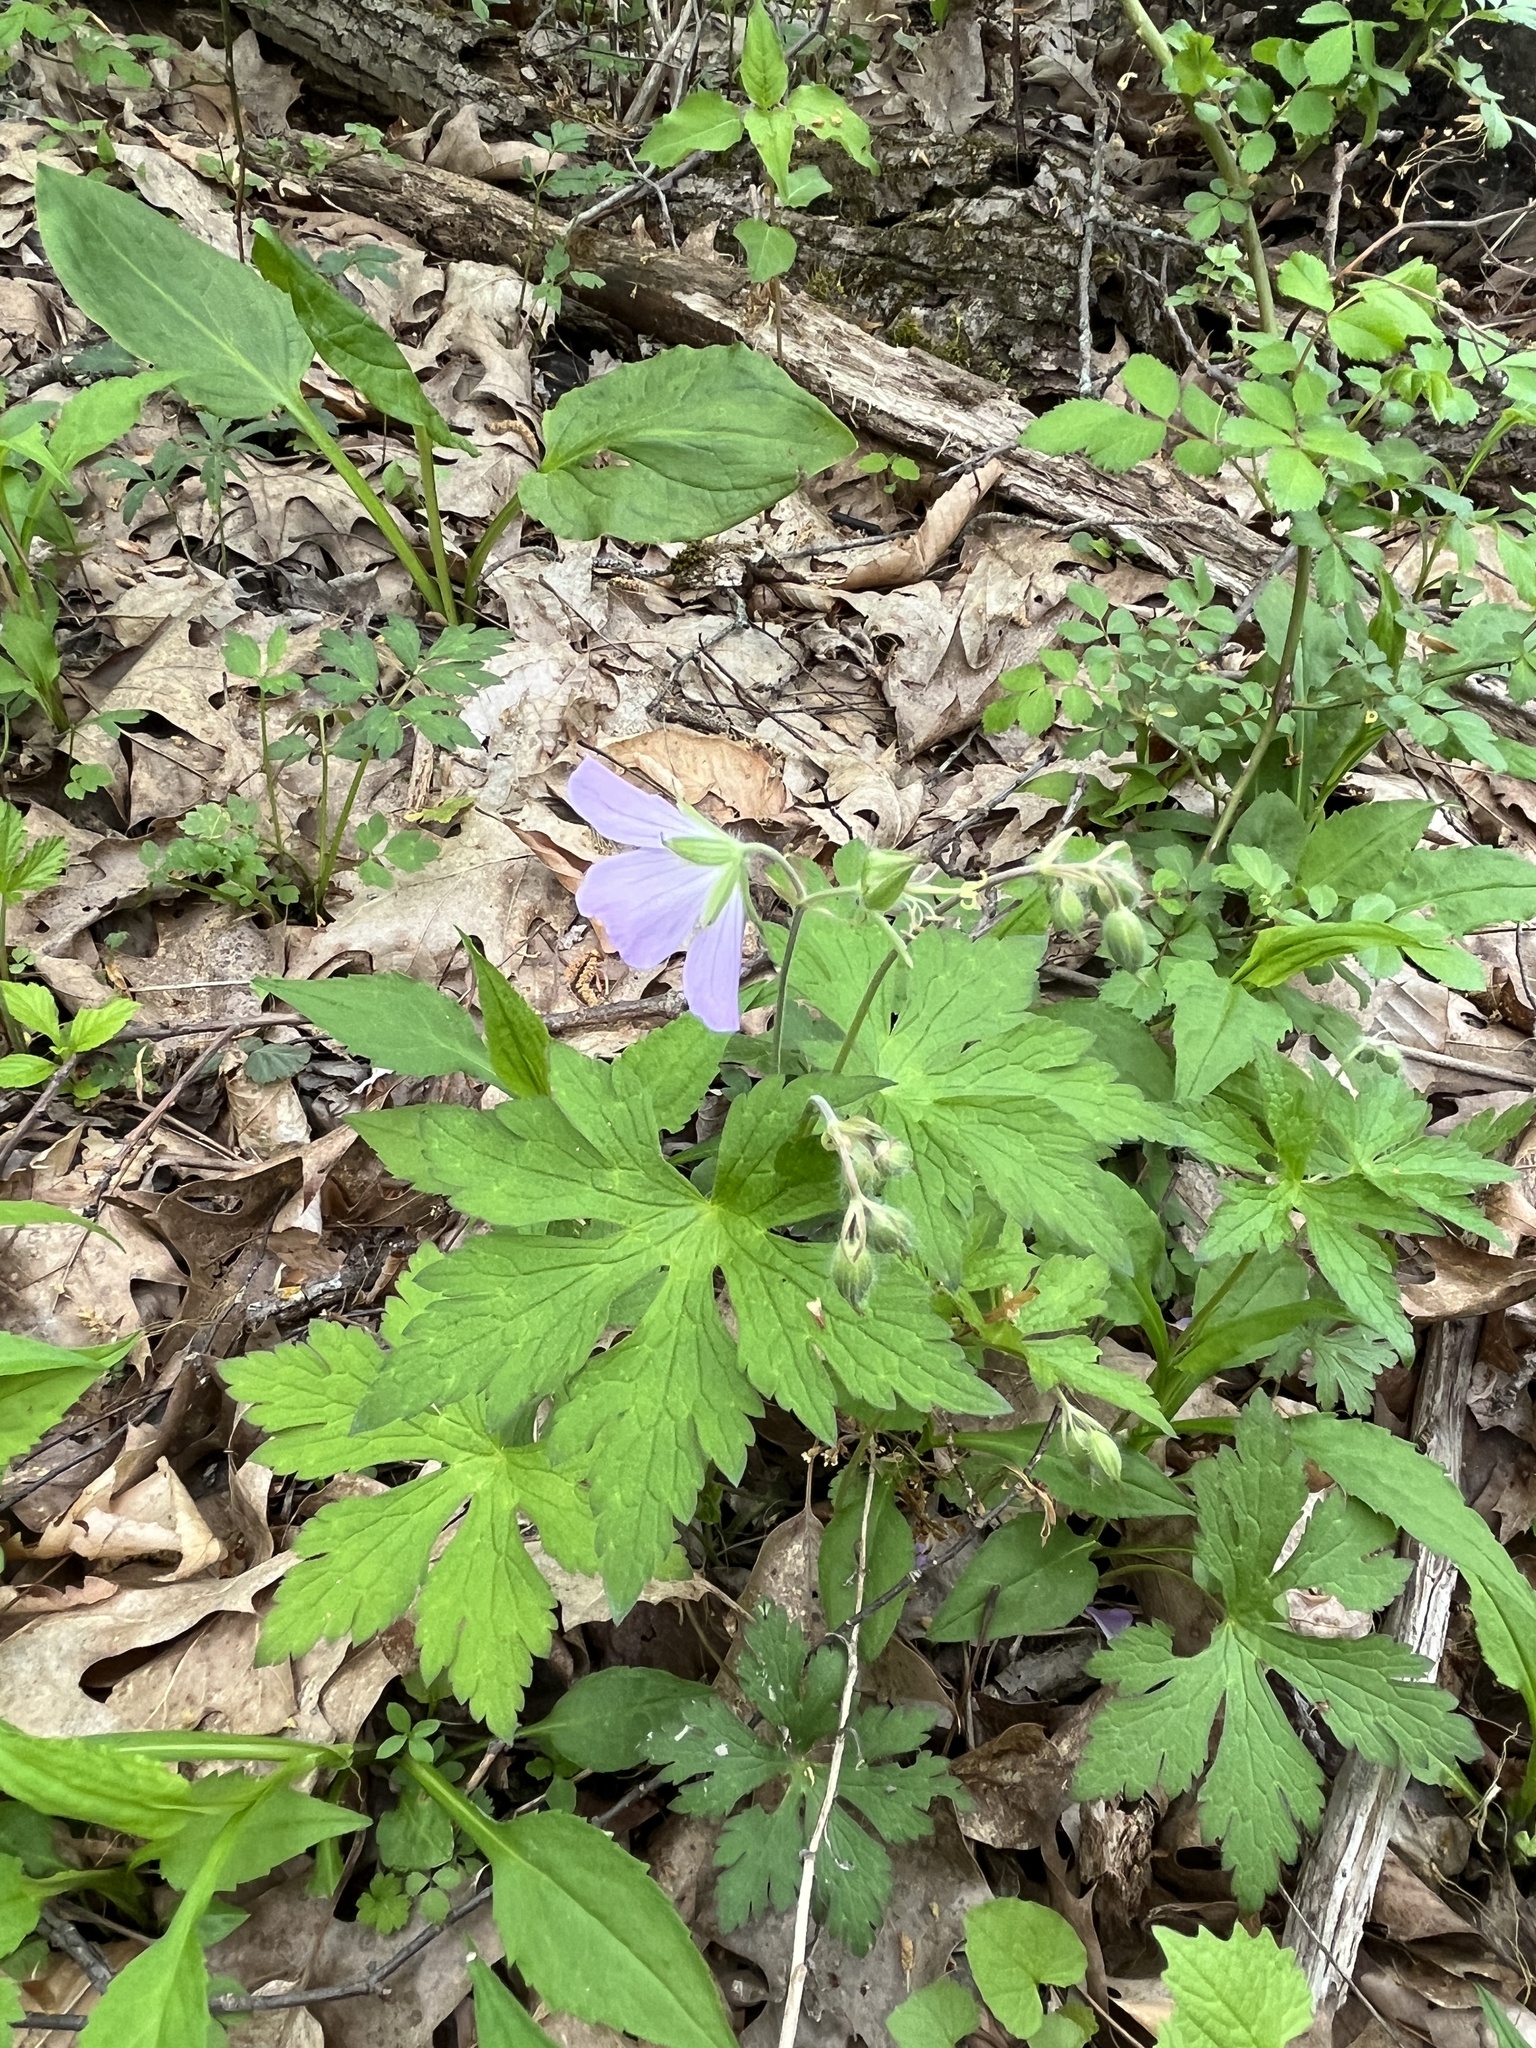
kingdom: Plantae
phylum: Tracheophyta
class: Magnoliopsida
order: Geraniales
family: Geraniaceae
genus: Geranium
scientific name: Geranium maculatum
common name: Spotted geranium
